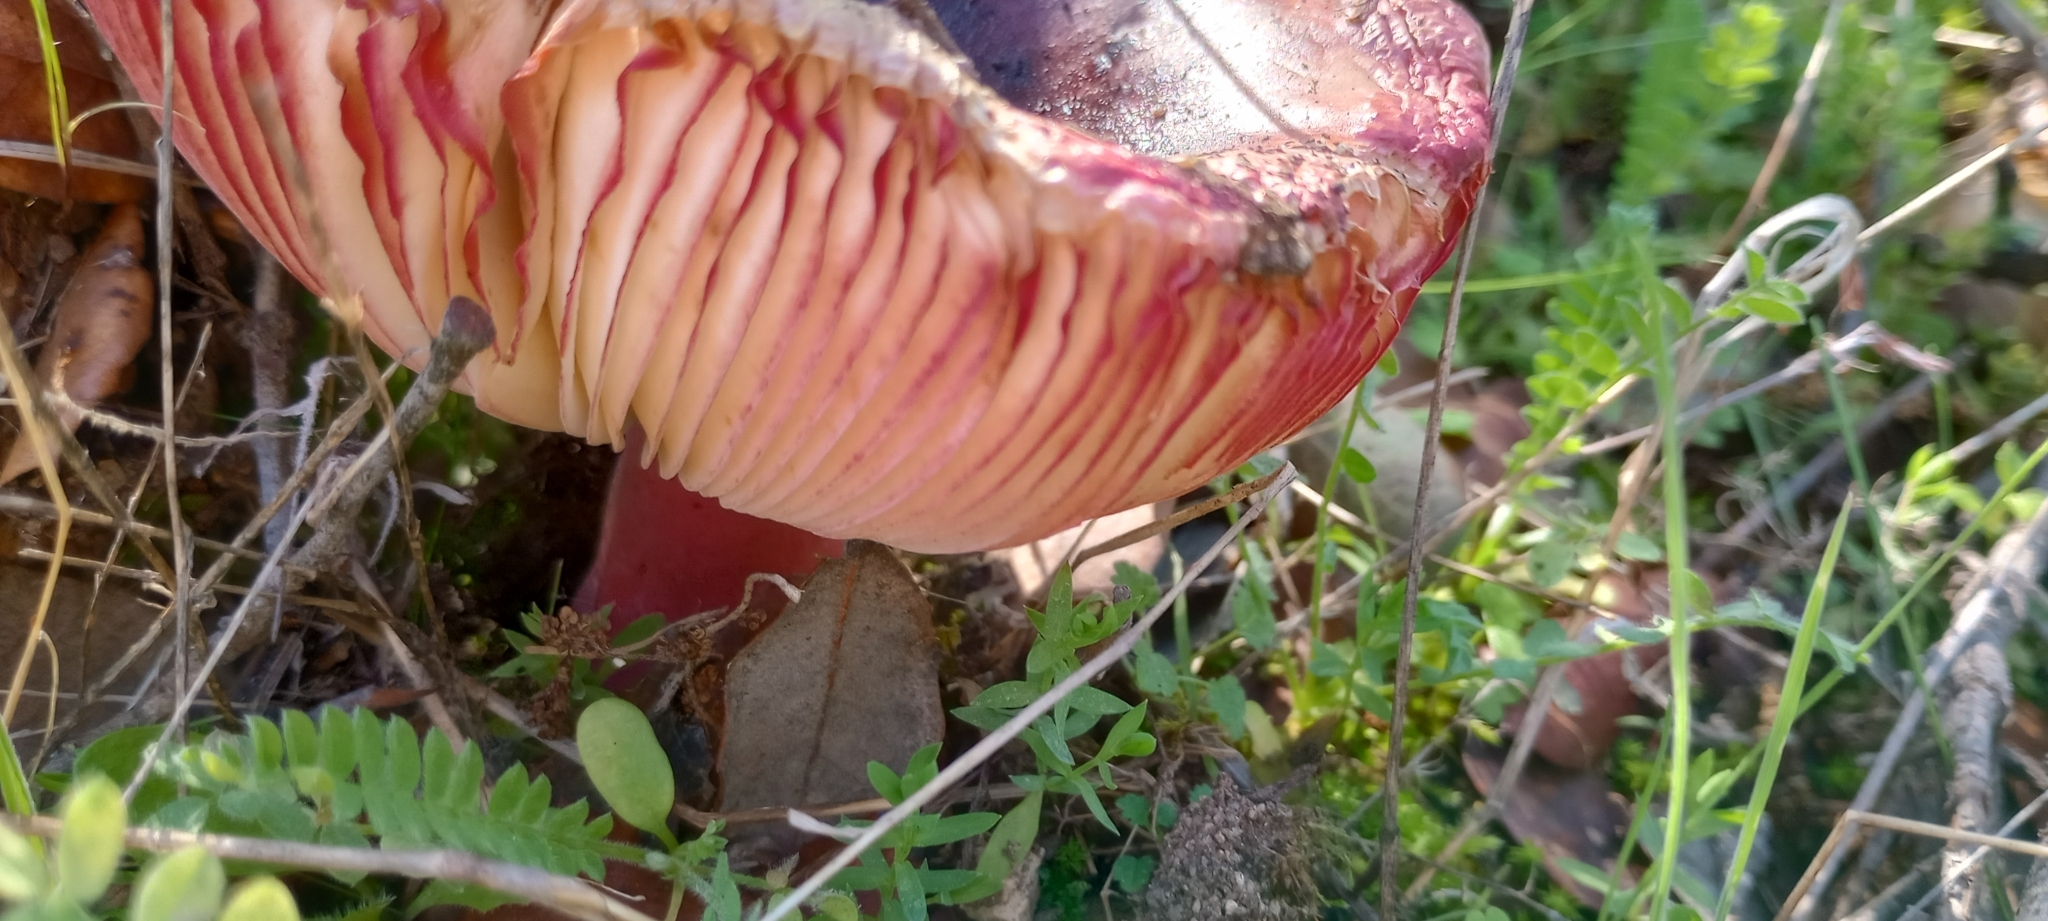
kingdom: Fungi
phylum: Basidiomycota
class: Agaricomycetes
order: Russulales
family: Russulaceae
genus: Russula
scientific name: Russula amarissima
